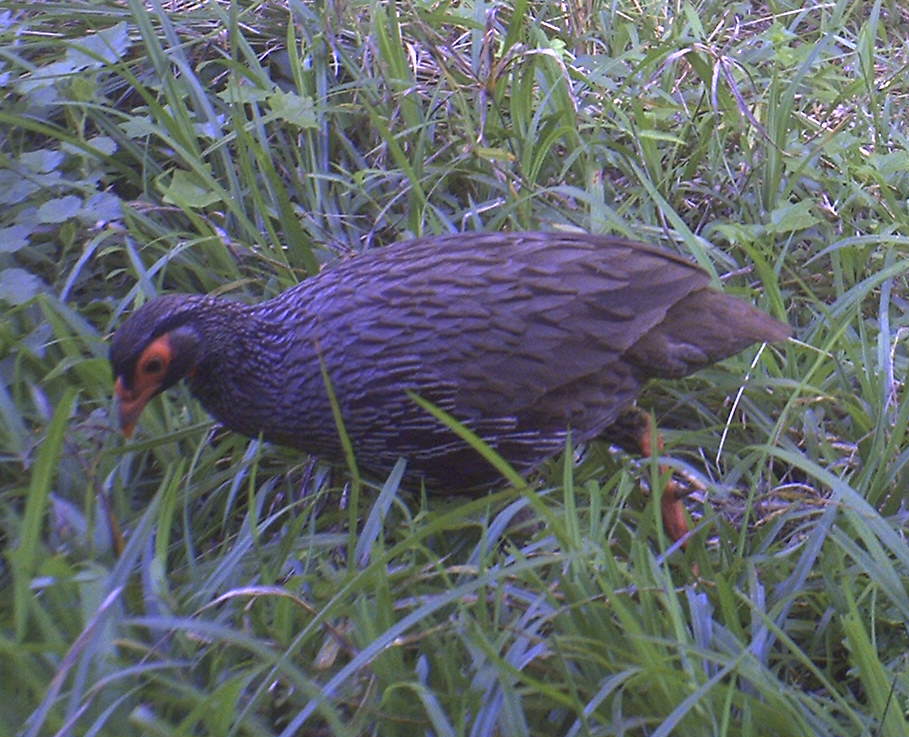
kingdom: Animalia
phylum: Chordata
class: Aves
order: Galliformes
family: Phasianidae
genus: Pternistis
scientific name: Pternistis afer
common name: Red-necked spurfowl
